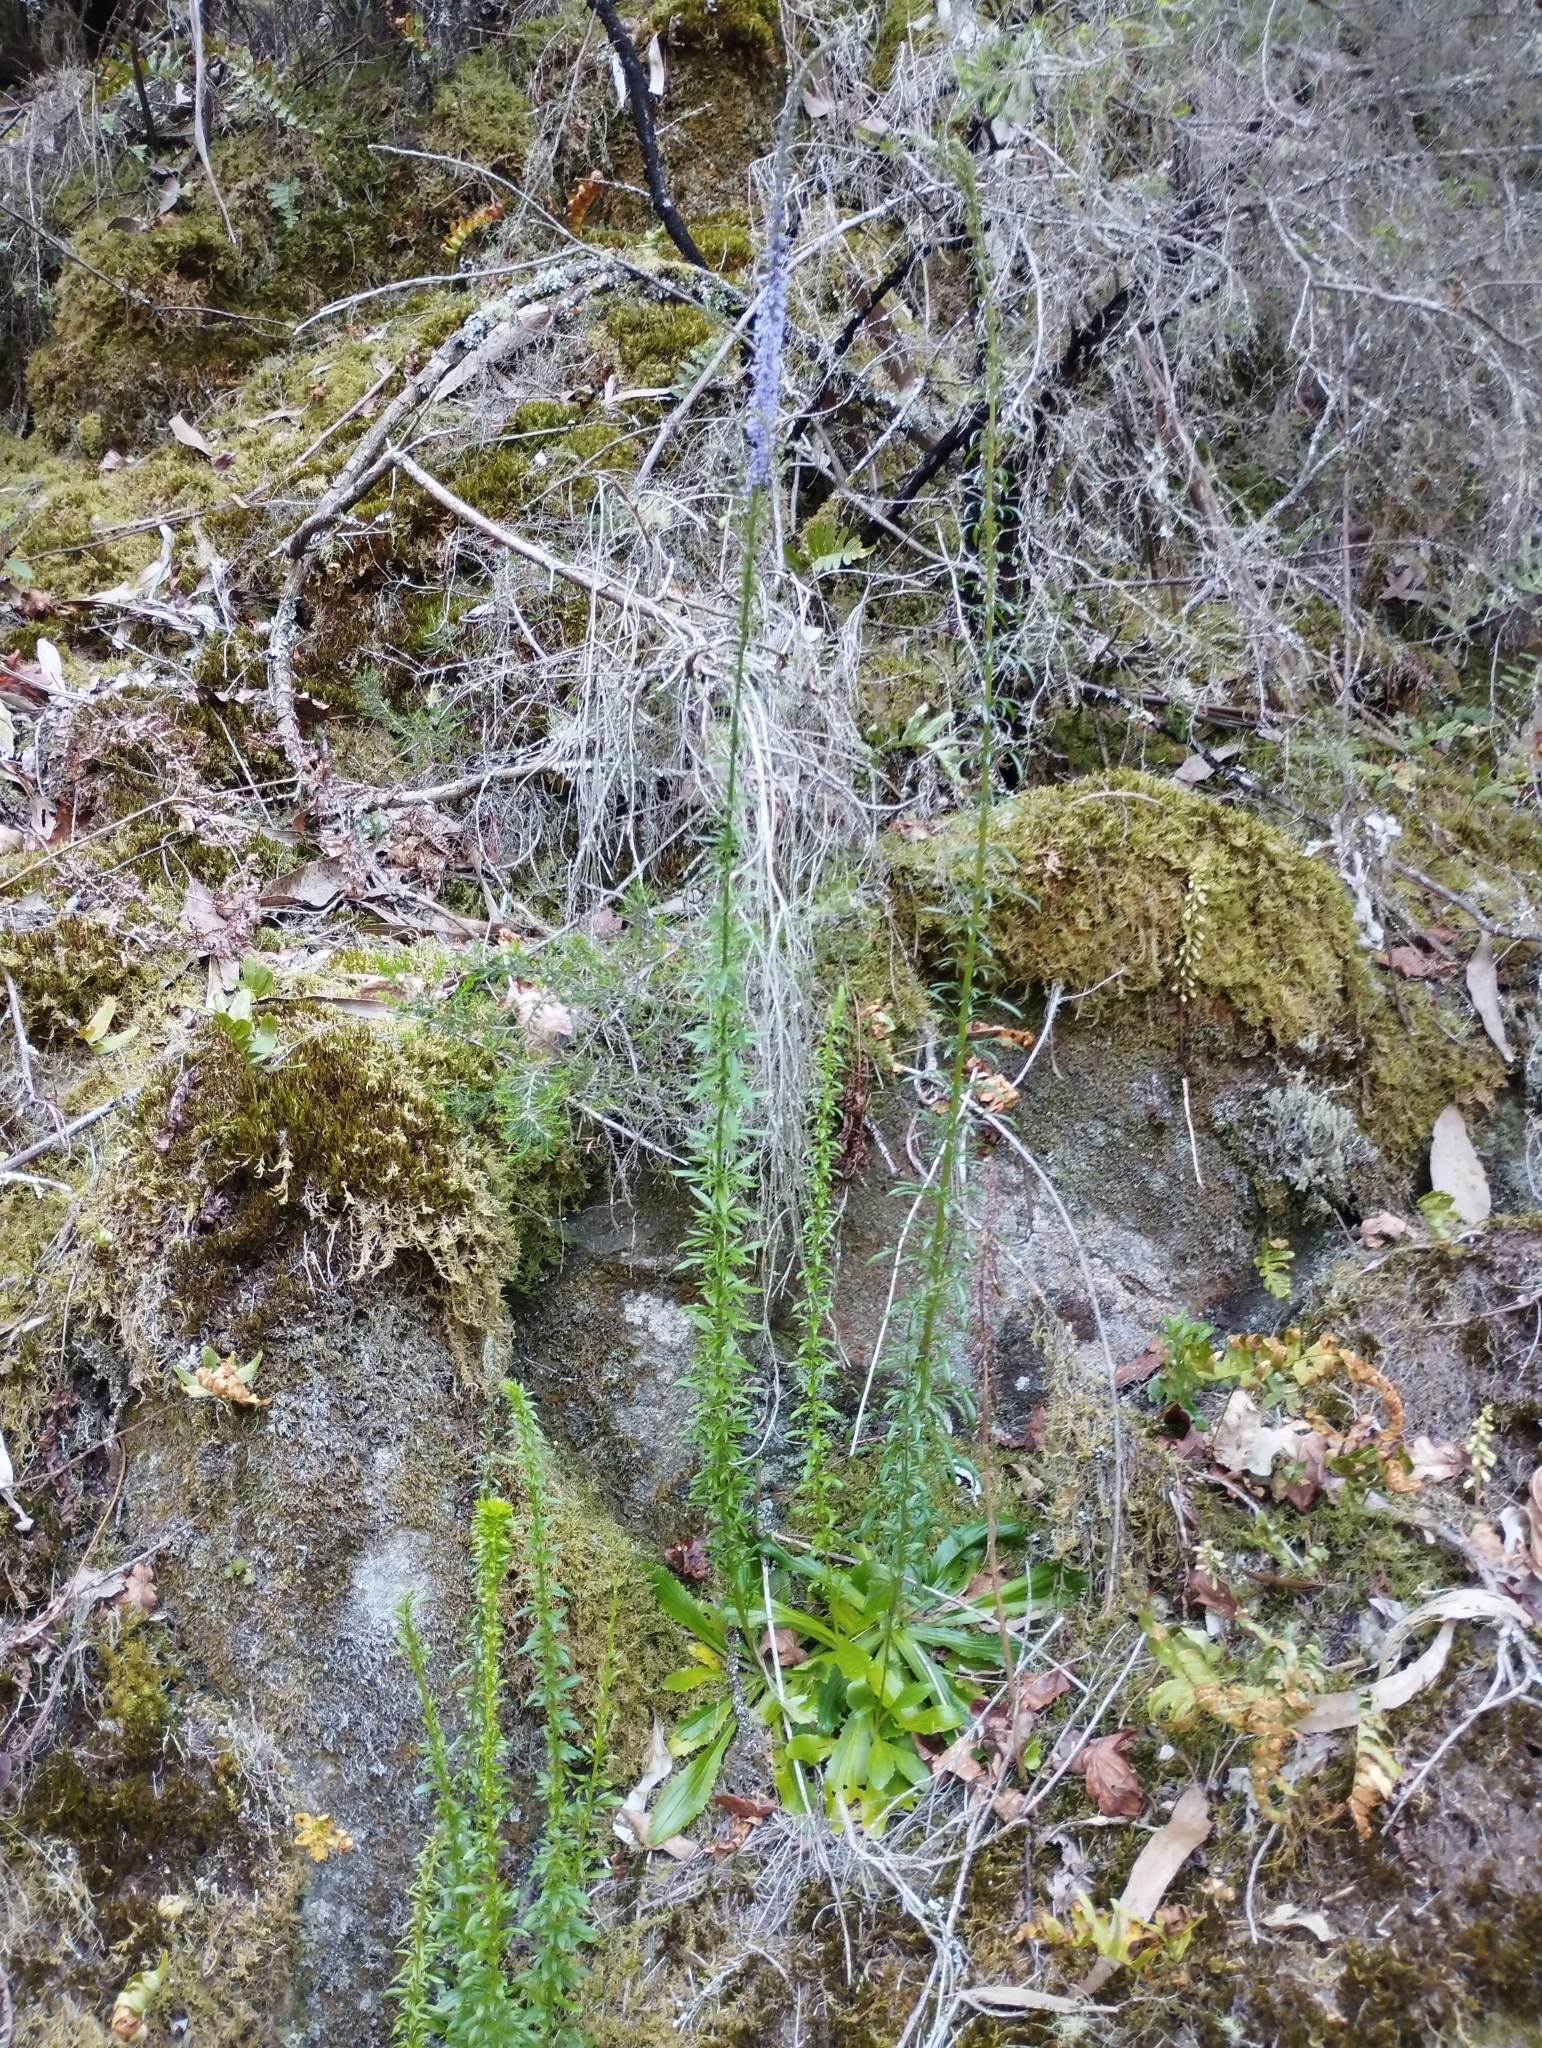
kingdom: Plantae
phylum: Tracheophyta
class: Magnoliopsida
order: Lamiales
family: Plantaginaceae
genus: Anarrhinum
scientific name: Anarrhinum bellidifolium
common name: Daisy-leaved toadflax
